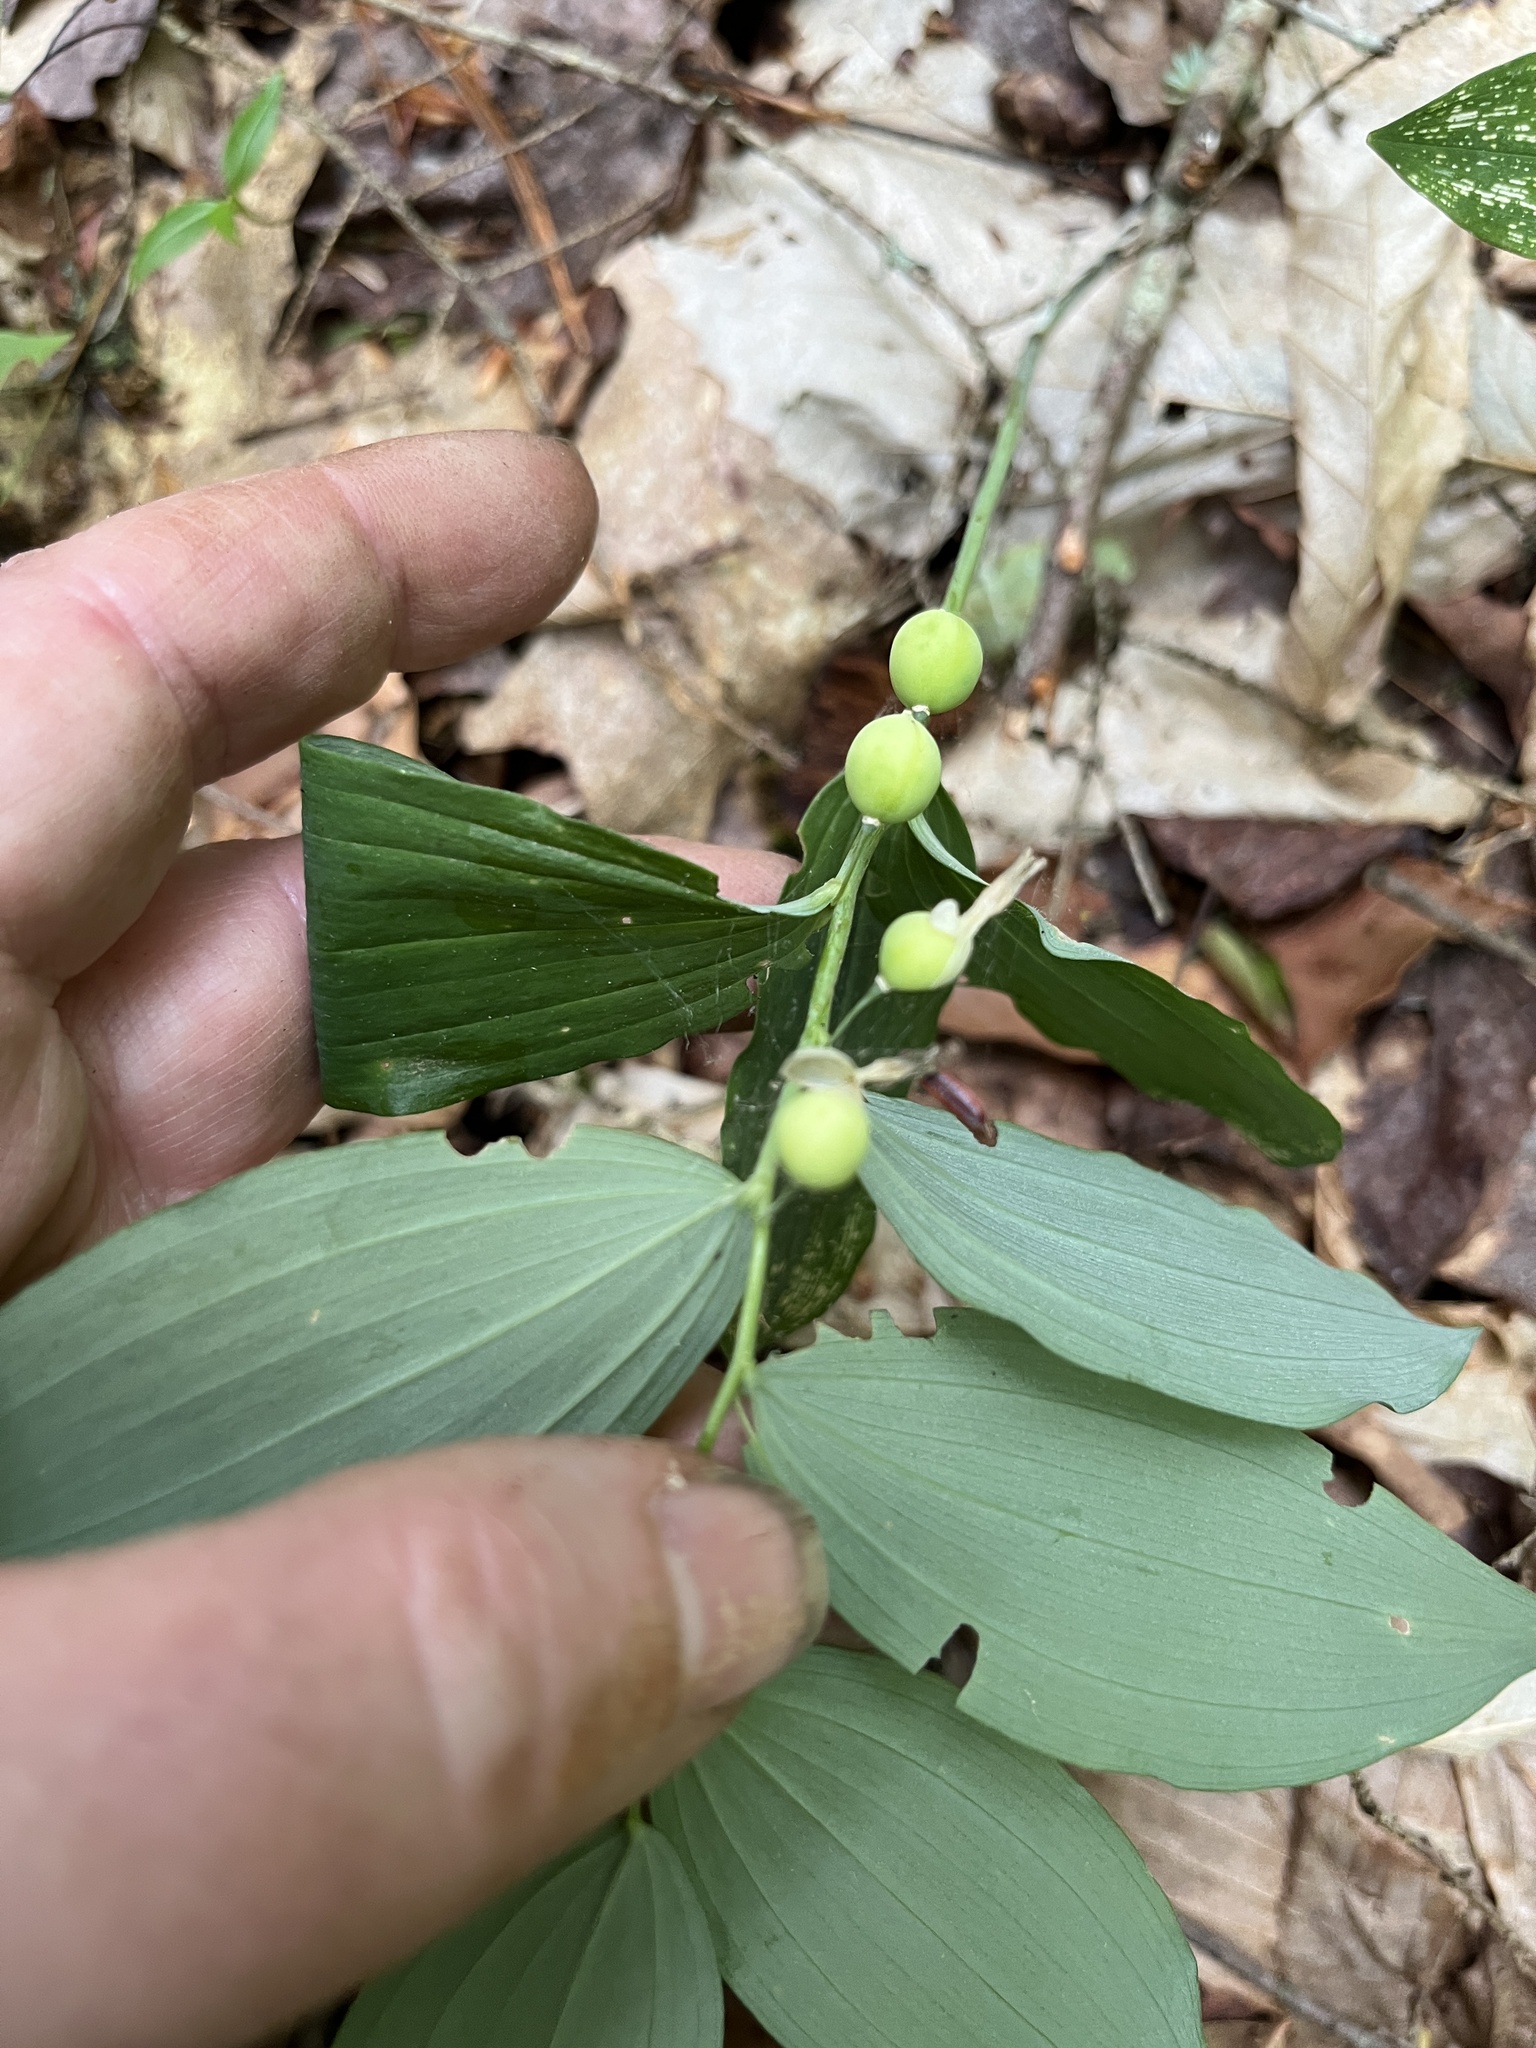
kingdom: Plantae
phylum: Tracheophyta
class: Liliopsida
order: Asparagales
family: Asparagaceae
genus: Polygonatum
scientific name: Polygonatum pubescens
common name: Downy solomon's seal
